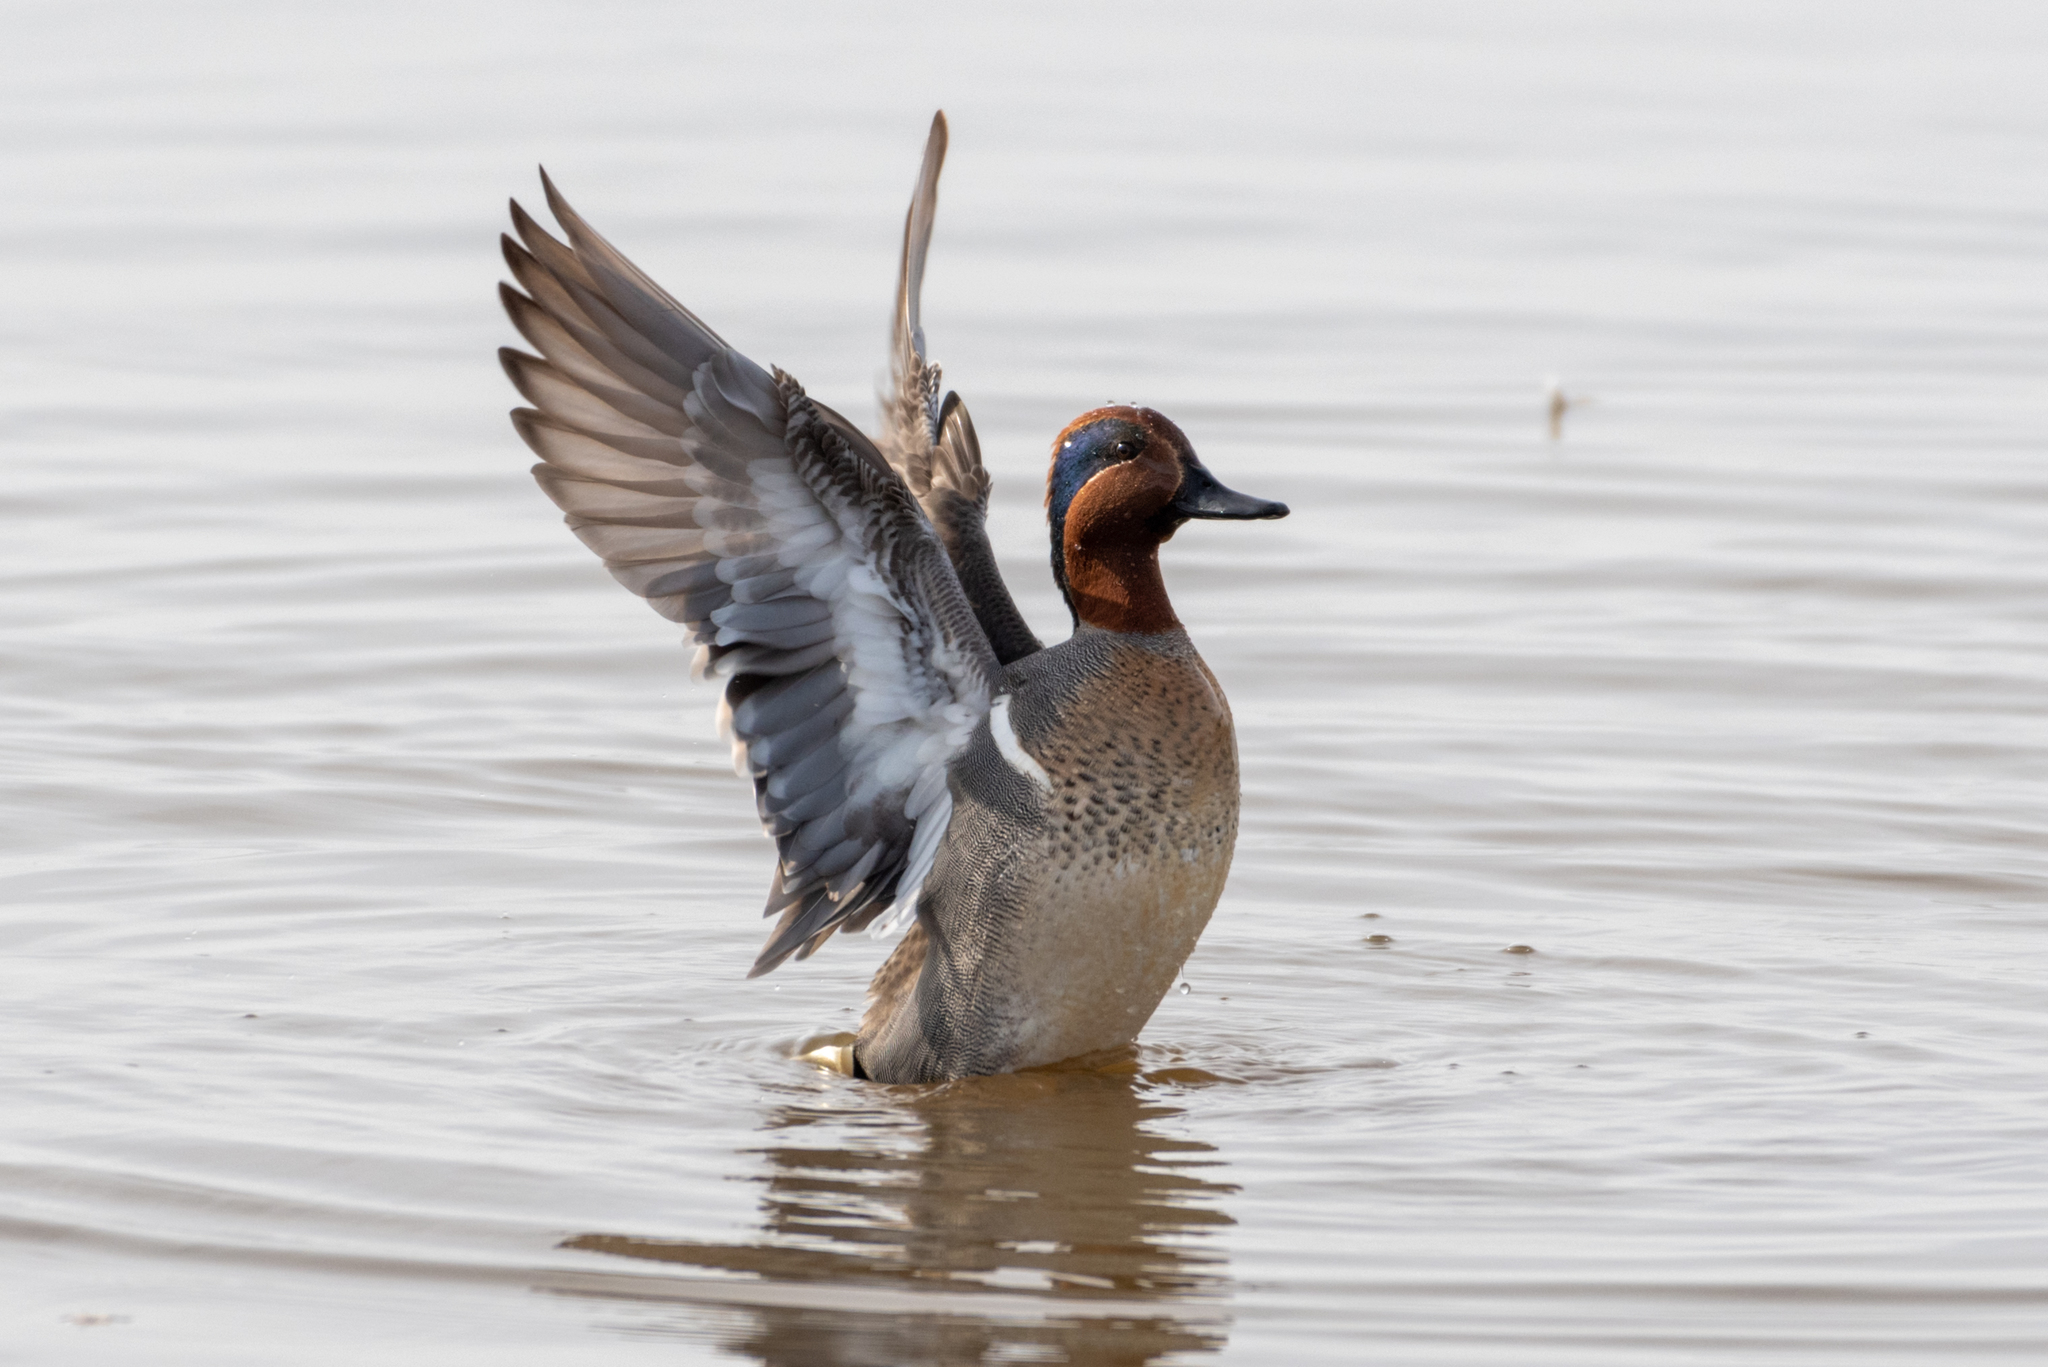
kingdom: Animalia
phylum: Chordata
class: Aves
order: Anseriformes
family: Anatidae
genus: Anas
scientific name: Anas crecca
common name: Eurasian teal
